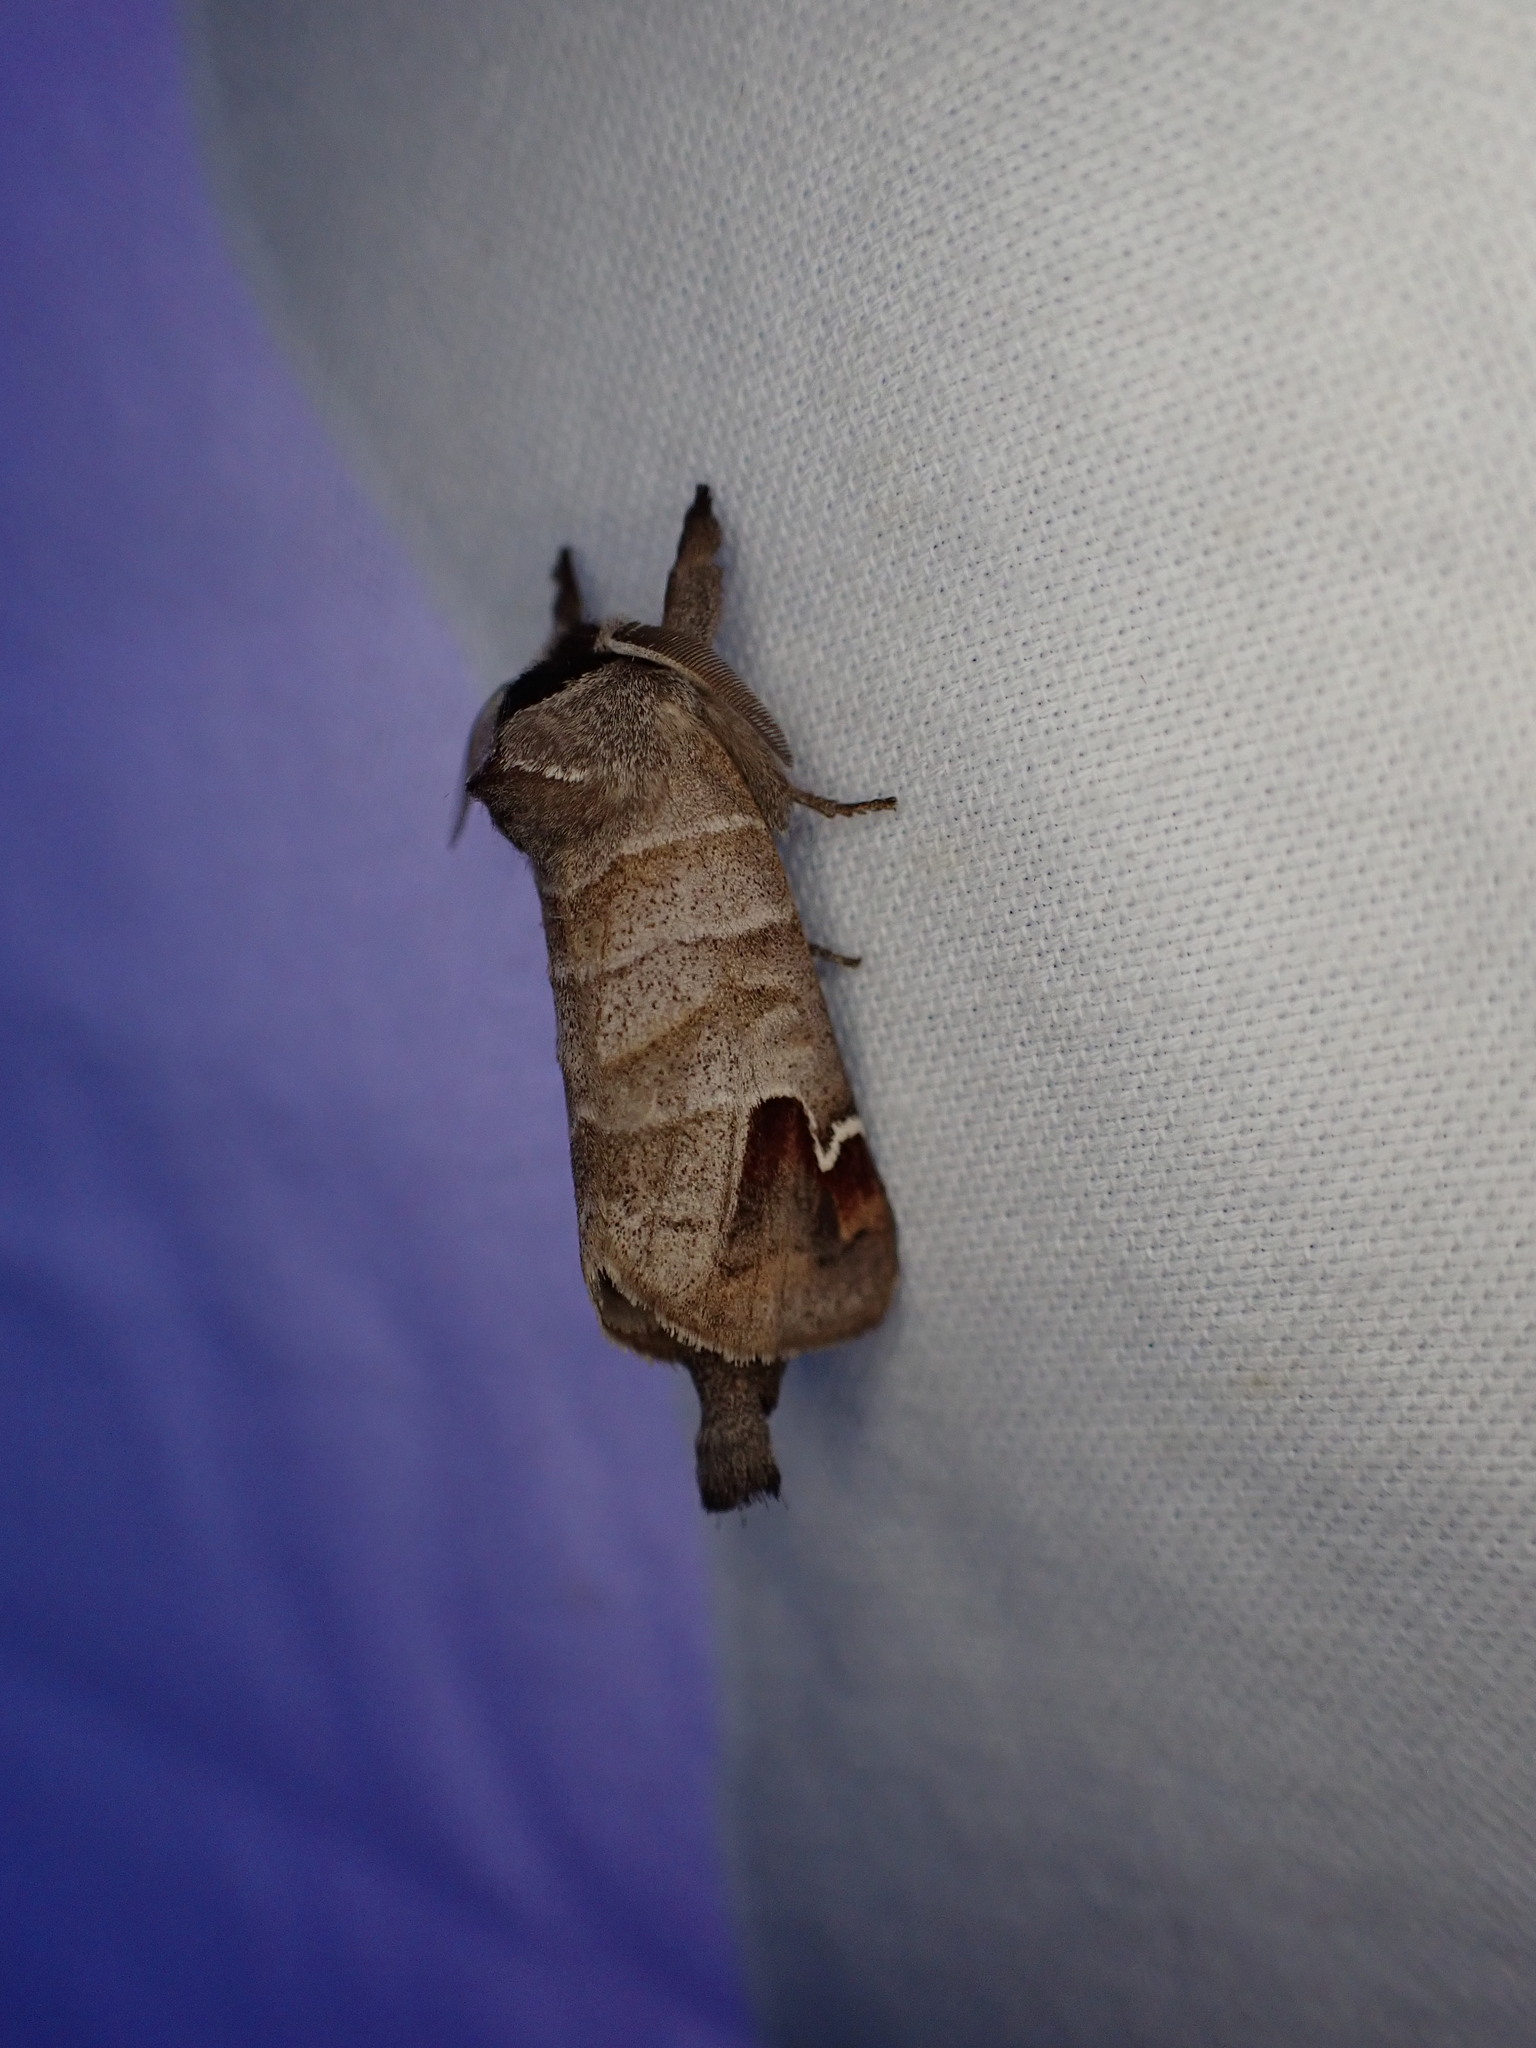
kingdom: Animalia
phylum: Arthropoda
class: Insecta
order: Lepidoptera
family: Notodontidae
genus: Clostera
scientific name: Clostera albosigma
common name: Sigmoid prominent
